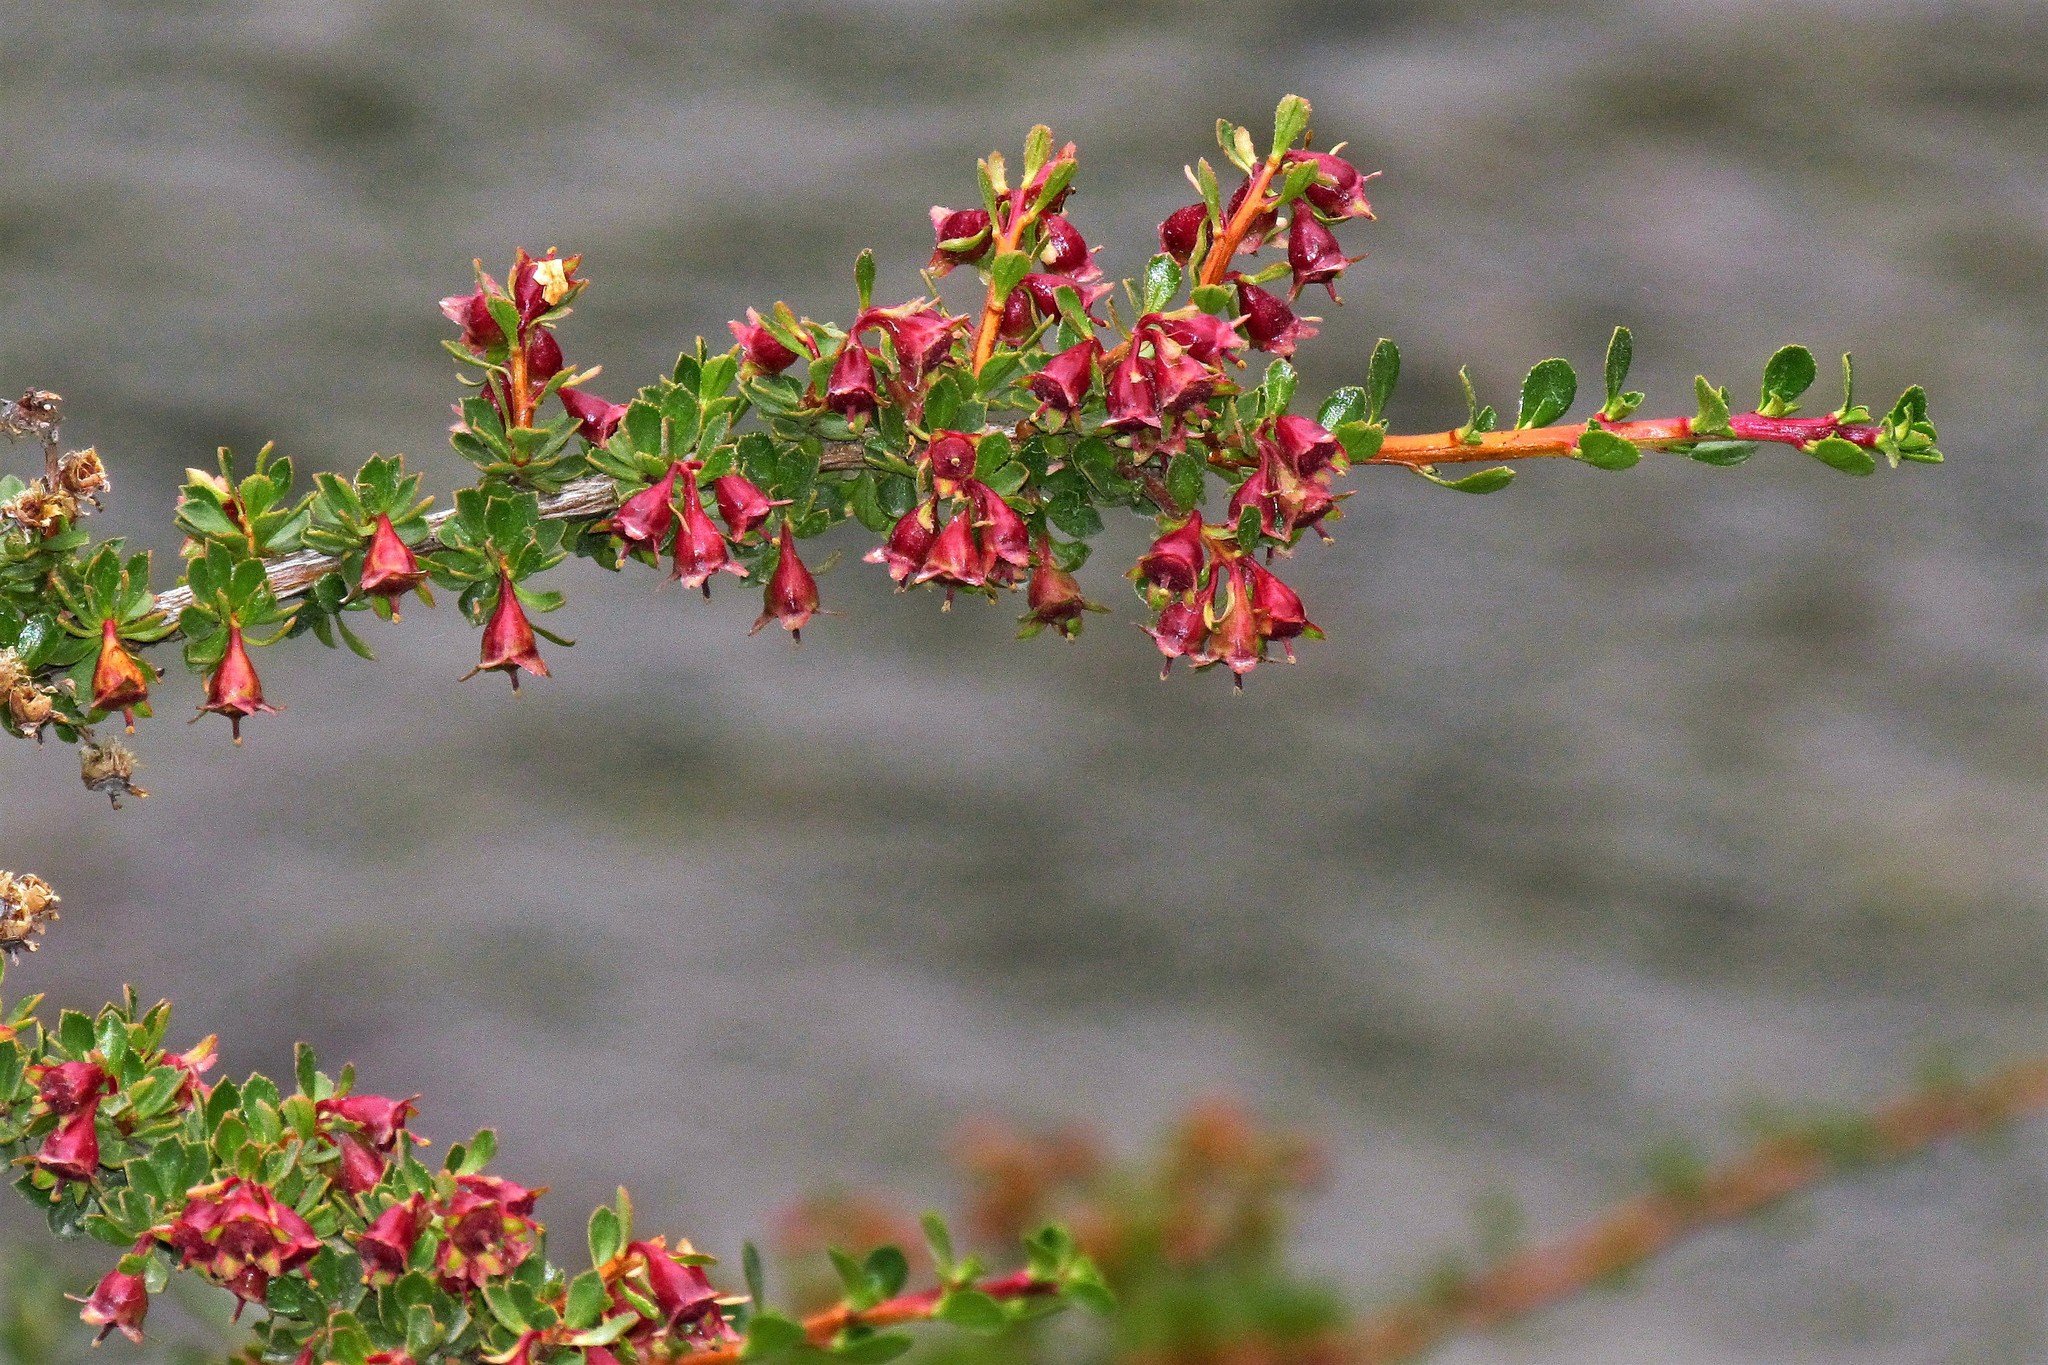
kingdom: Plantae
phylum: Tracheophyta
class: Magnoliopsida
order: Escalloniales
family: Escalloniaceae
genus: Escallonia
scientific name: Escallonia rubra
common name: Redclaws
